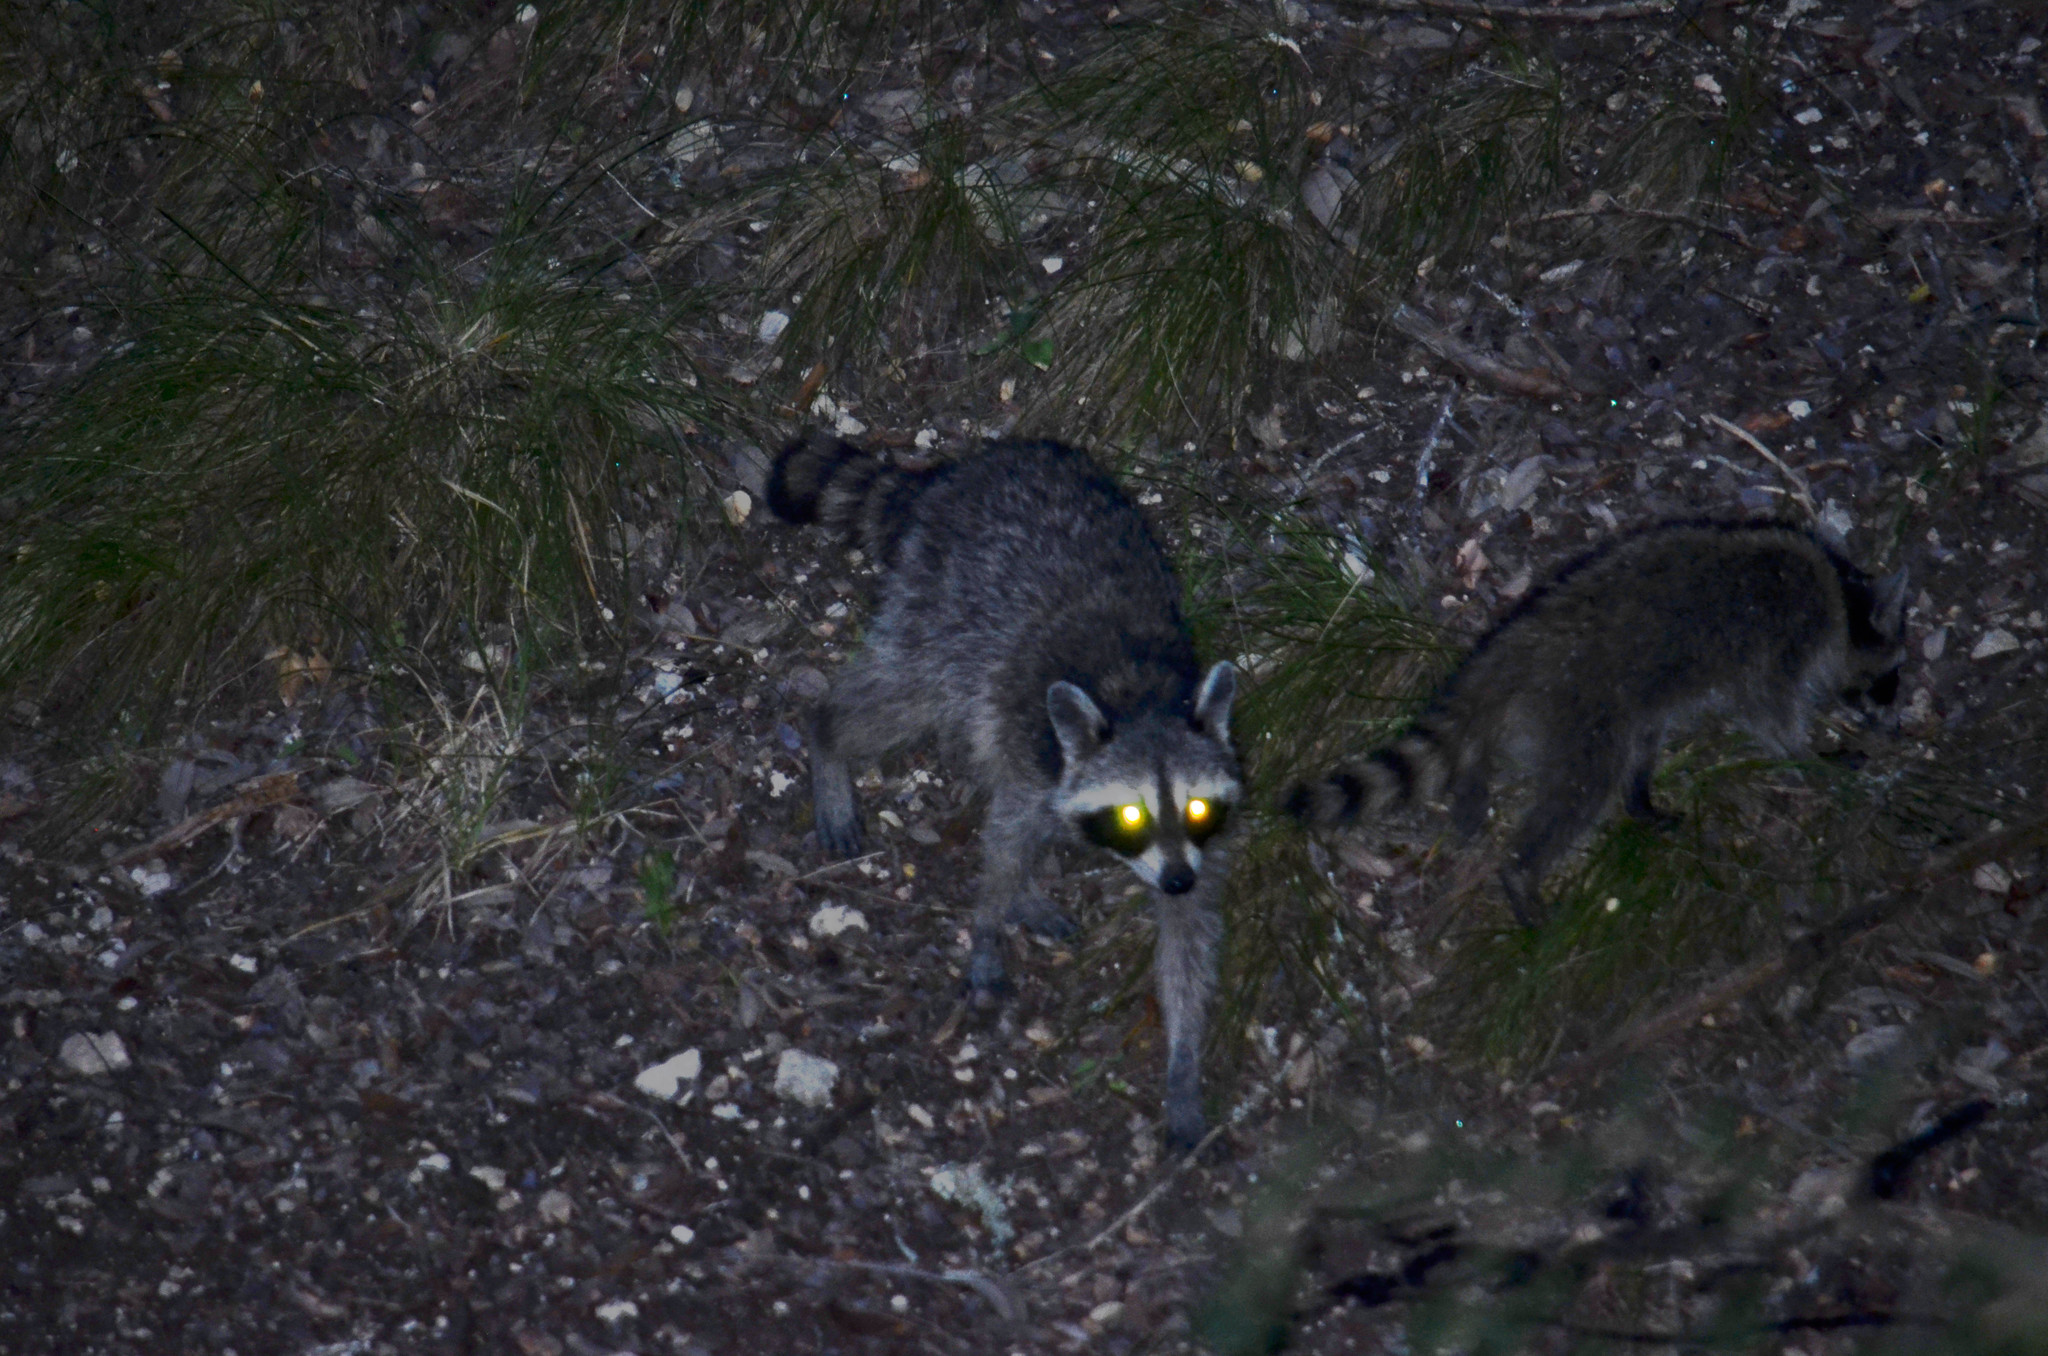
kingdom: Animalia
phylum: Chordata
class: Mammalia
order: Carnivora
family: Procyonidae
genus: Procyon
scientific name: Procyon lotor
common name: Raccoon
